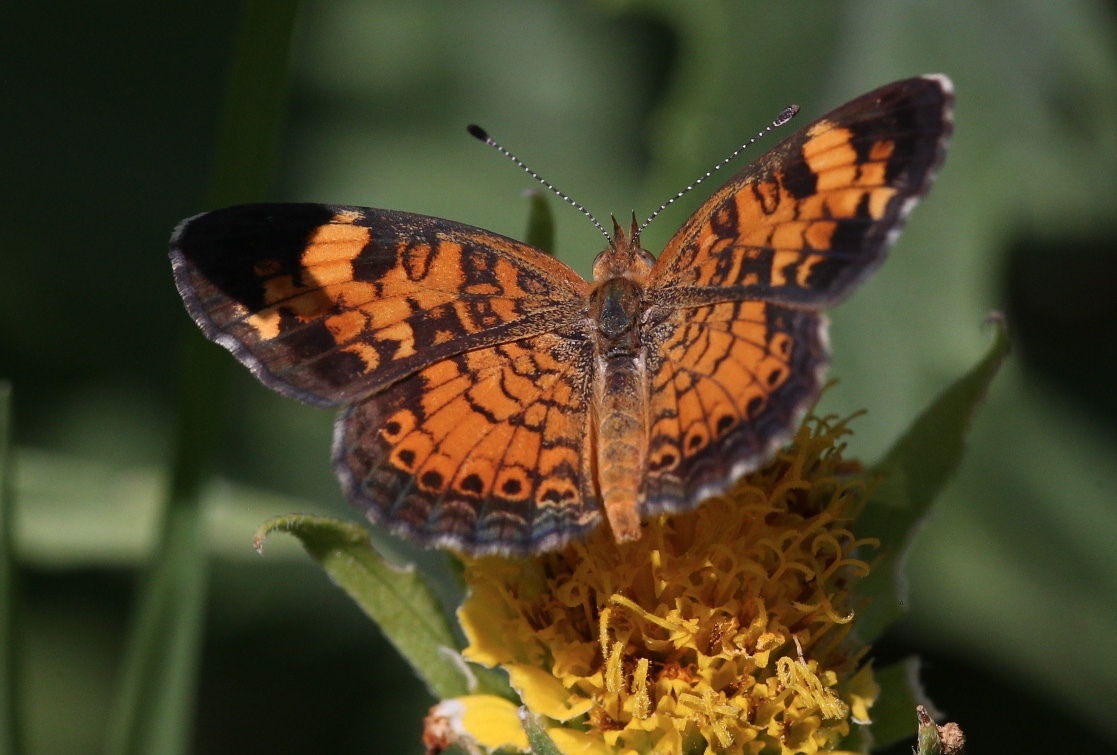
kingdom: Animalia
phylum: Arthropoda
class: Insecta
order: Lepidoptera
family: Nymphalidae
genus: Phyciodes
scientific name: Phyciodes tharos
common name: Pearl crescent
